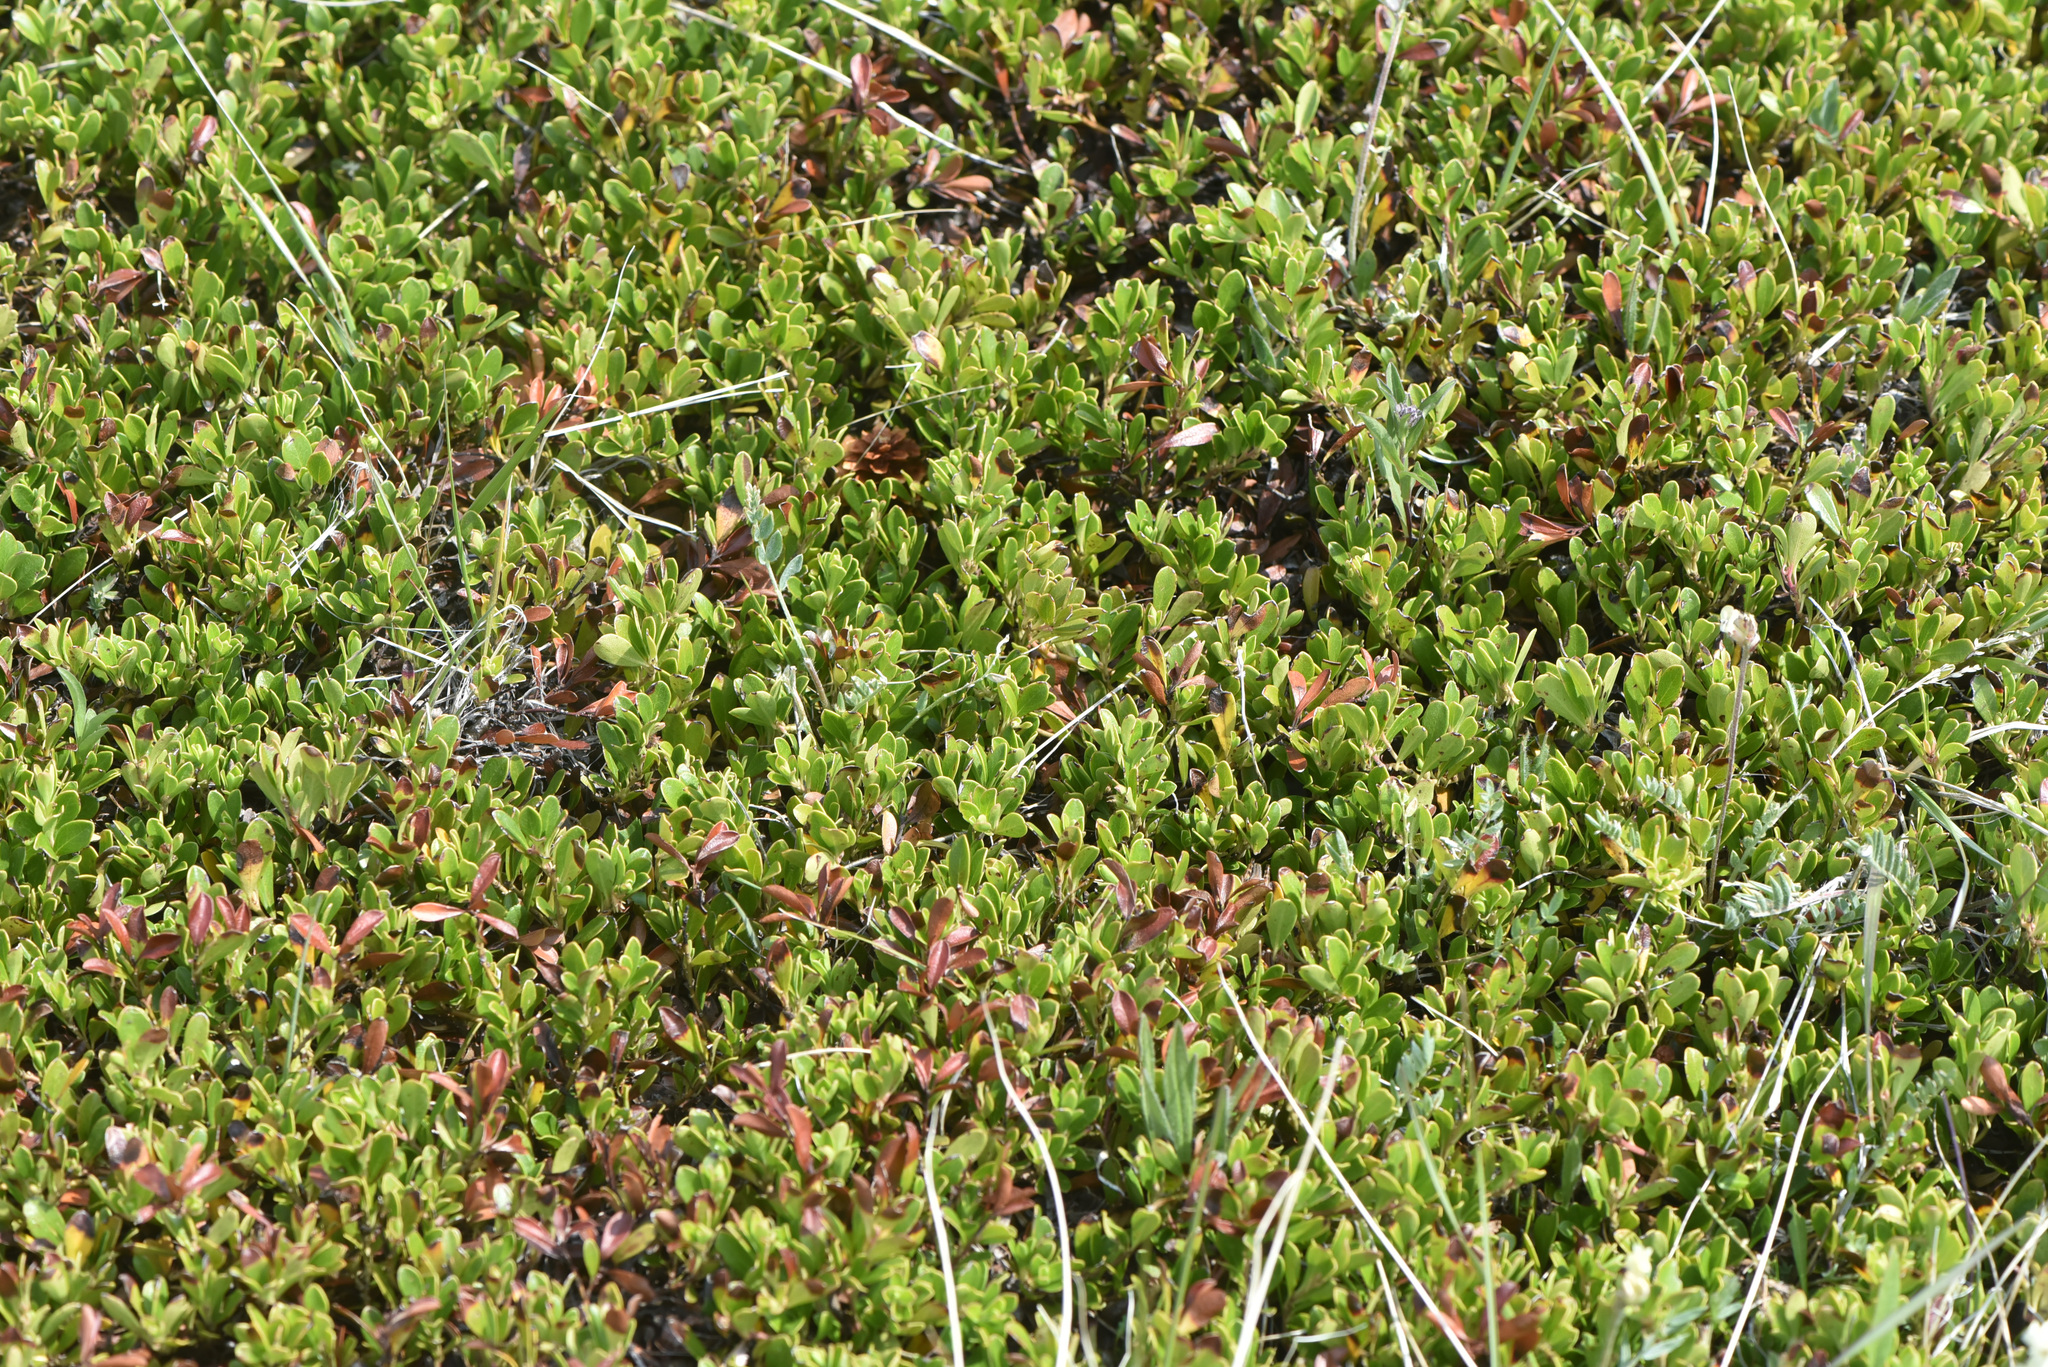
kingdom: Plantae
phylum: Tracheophyta
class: Magnoliopsida
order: Ericales
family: Ericaceae
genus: Arctostaphylos
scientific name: Arctostaphylos uva-ursi
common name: Bearberry
